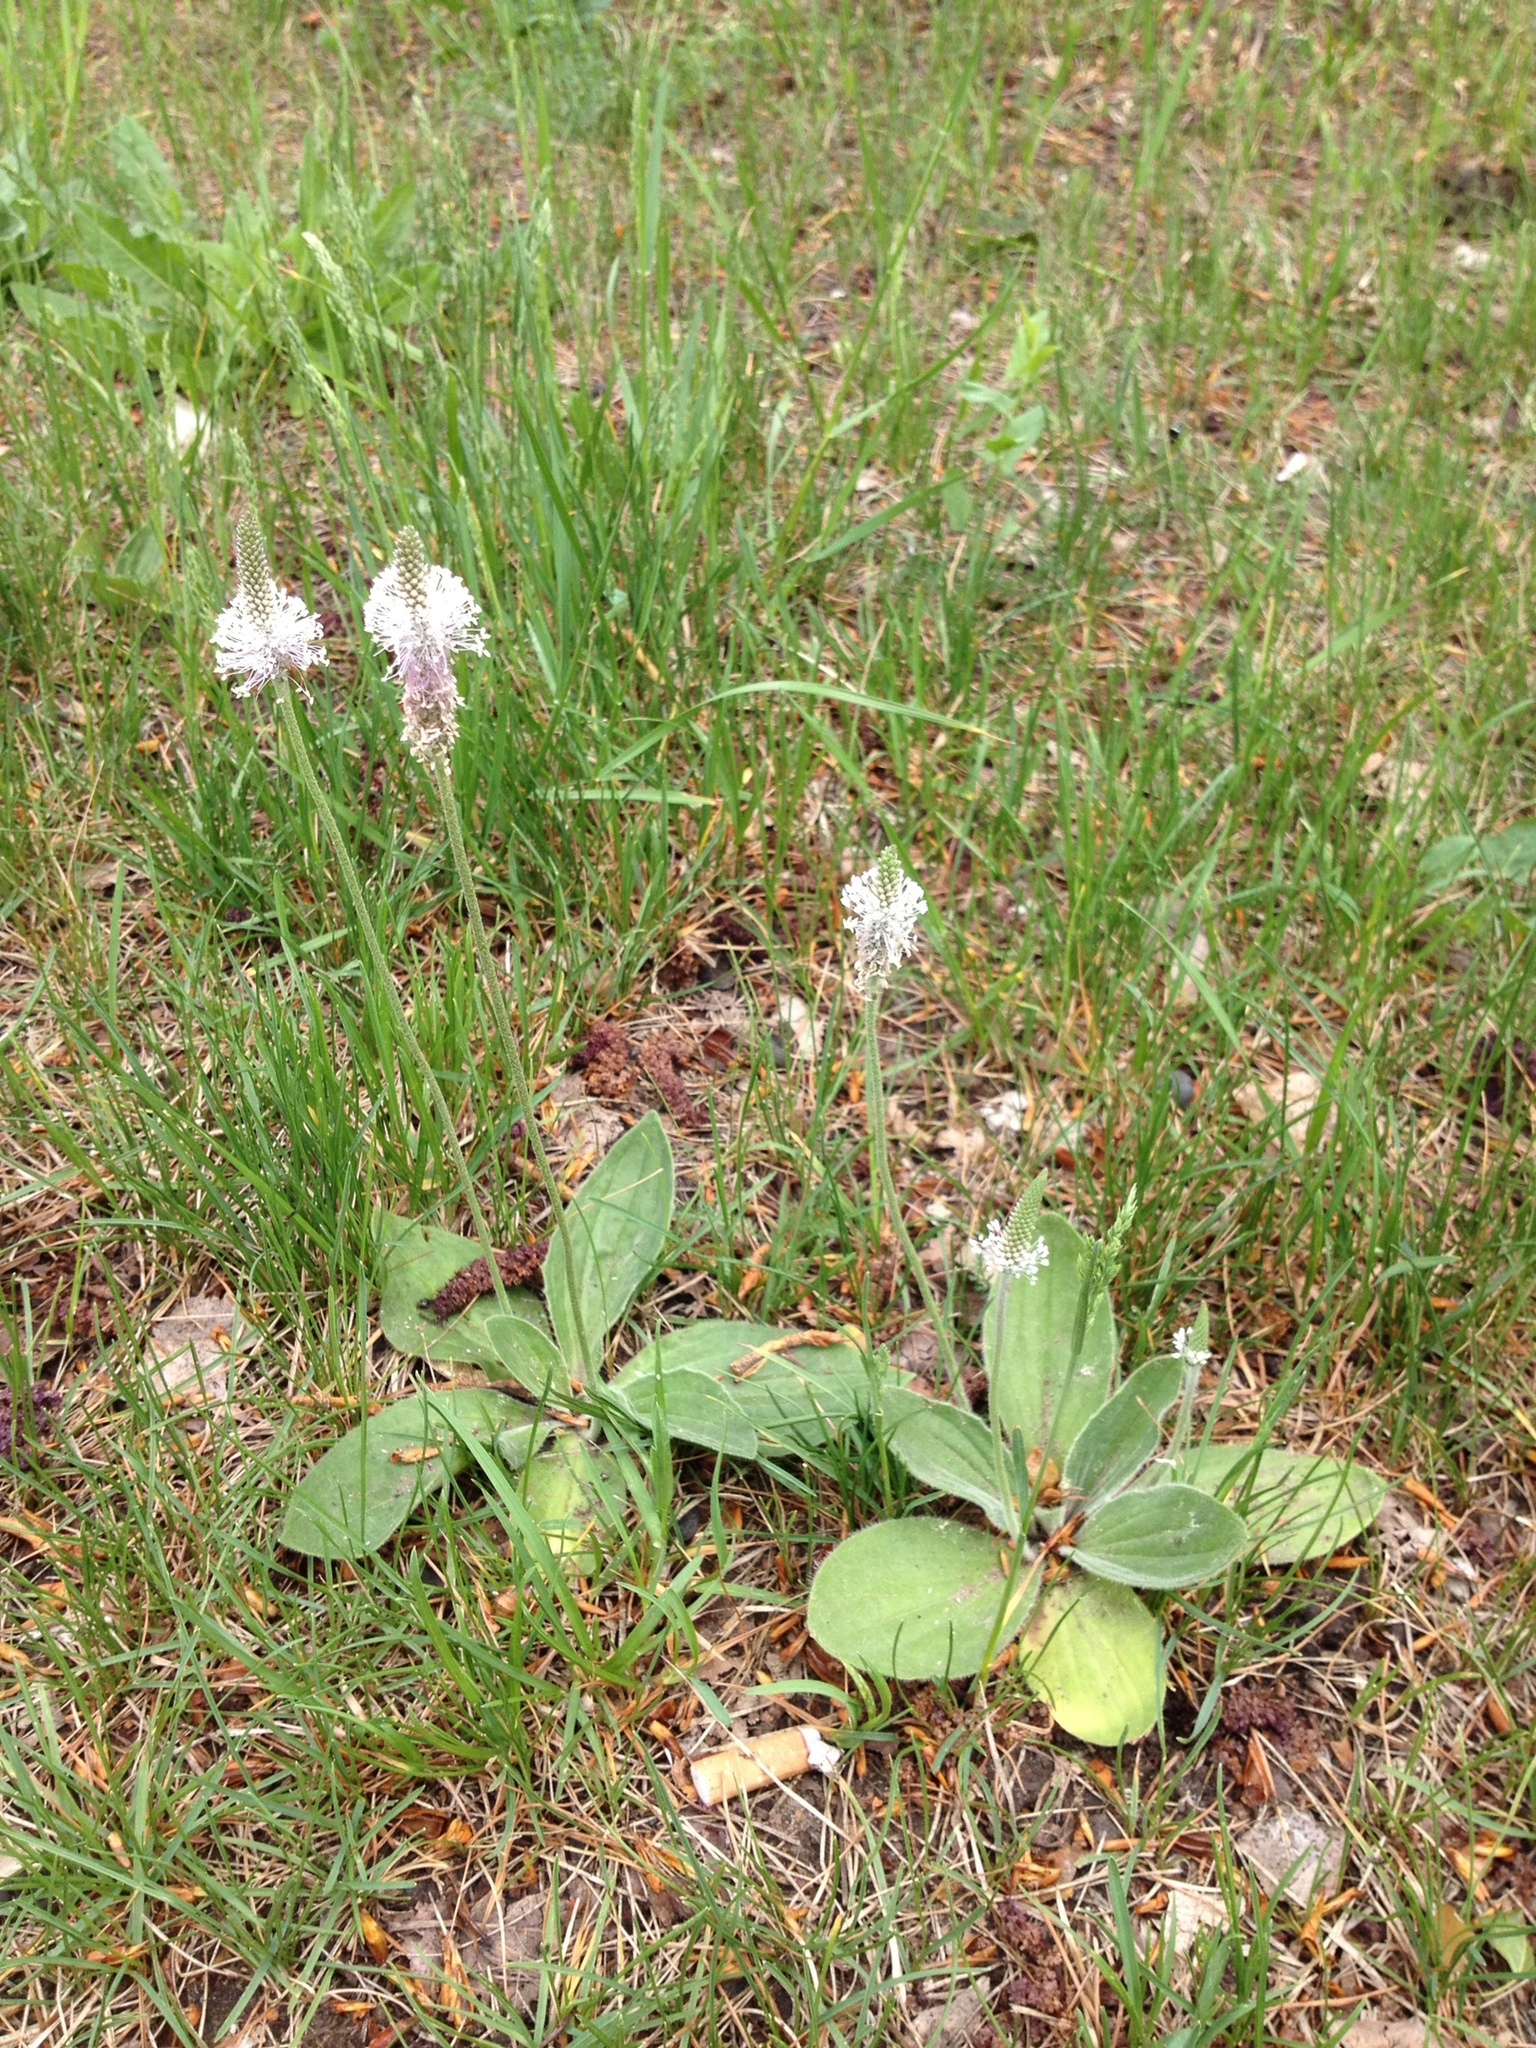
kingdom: Plantae
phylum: Tracheophyta
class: Magnoliopsida
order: Lamiales
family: Plantaginaceae
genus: Plantago
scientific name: Plantago media
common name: Hoary plantain
